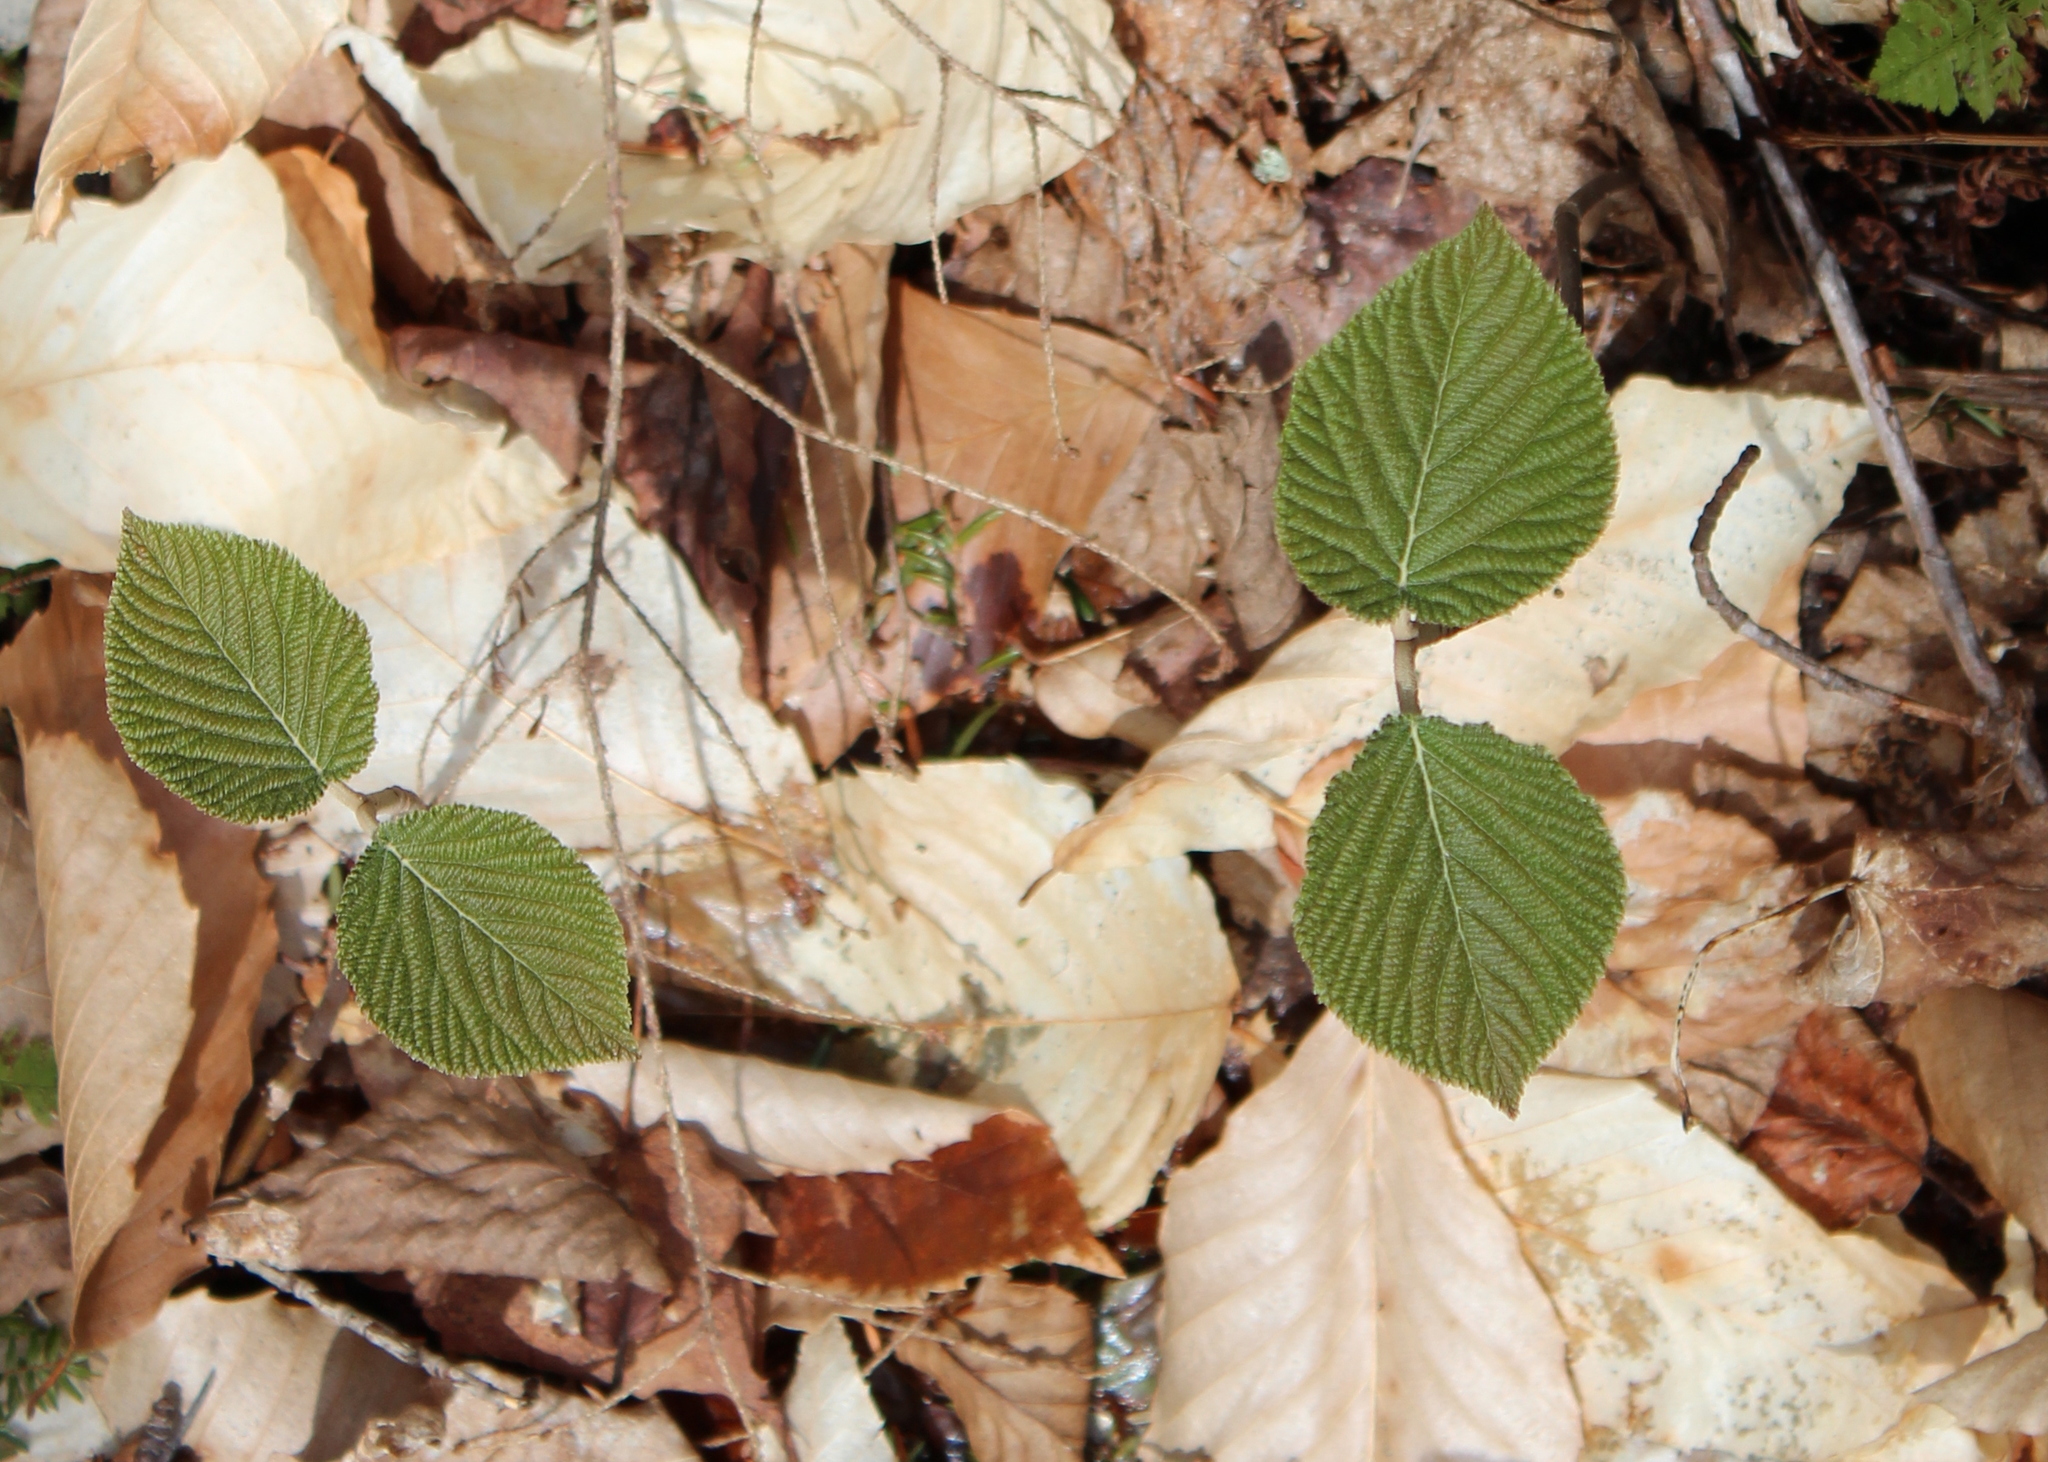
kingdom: Plantae
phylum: Tracheophyta
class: Magnoliopsida
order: Dipsacales
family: Viburnaceae
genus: Viburnum
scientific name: Viburnum lantanoides
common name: Hobblebush
